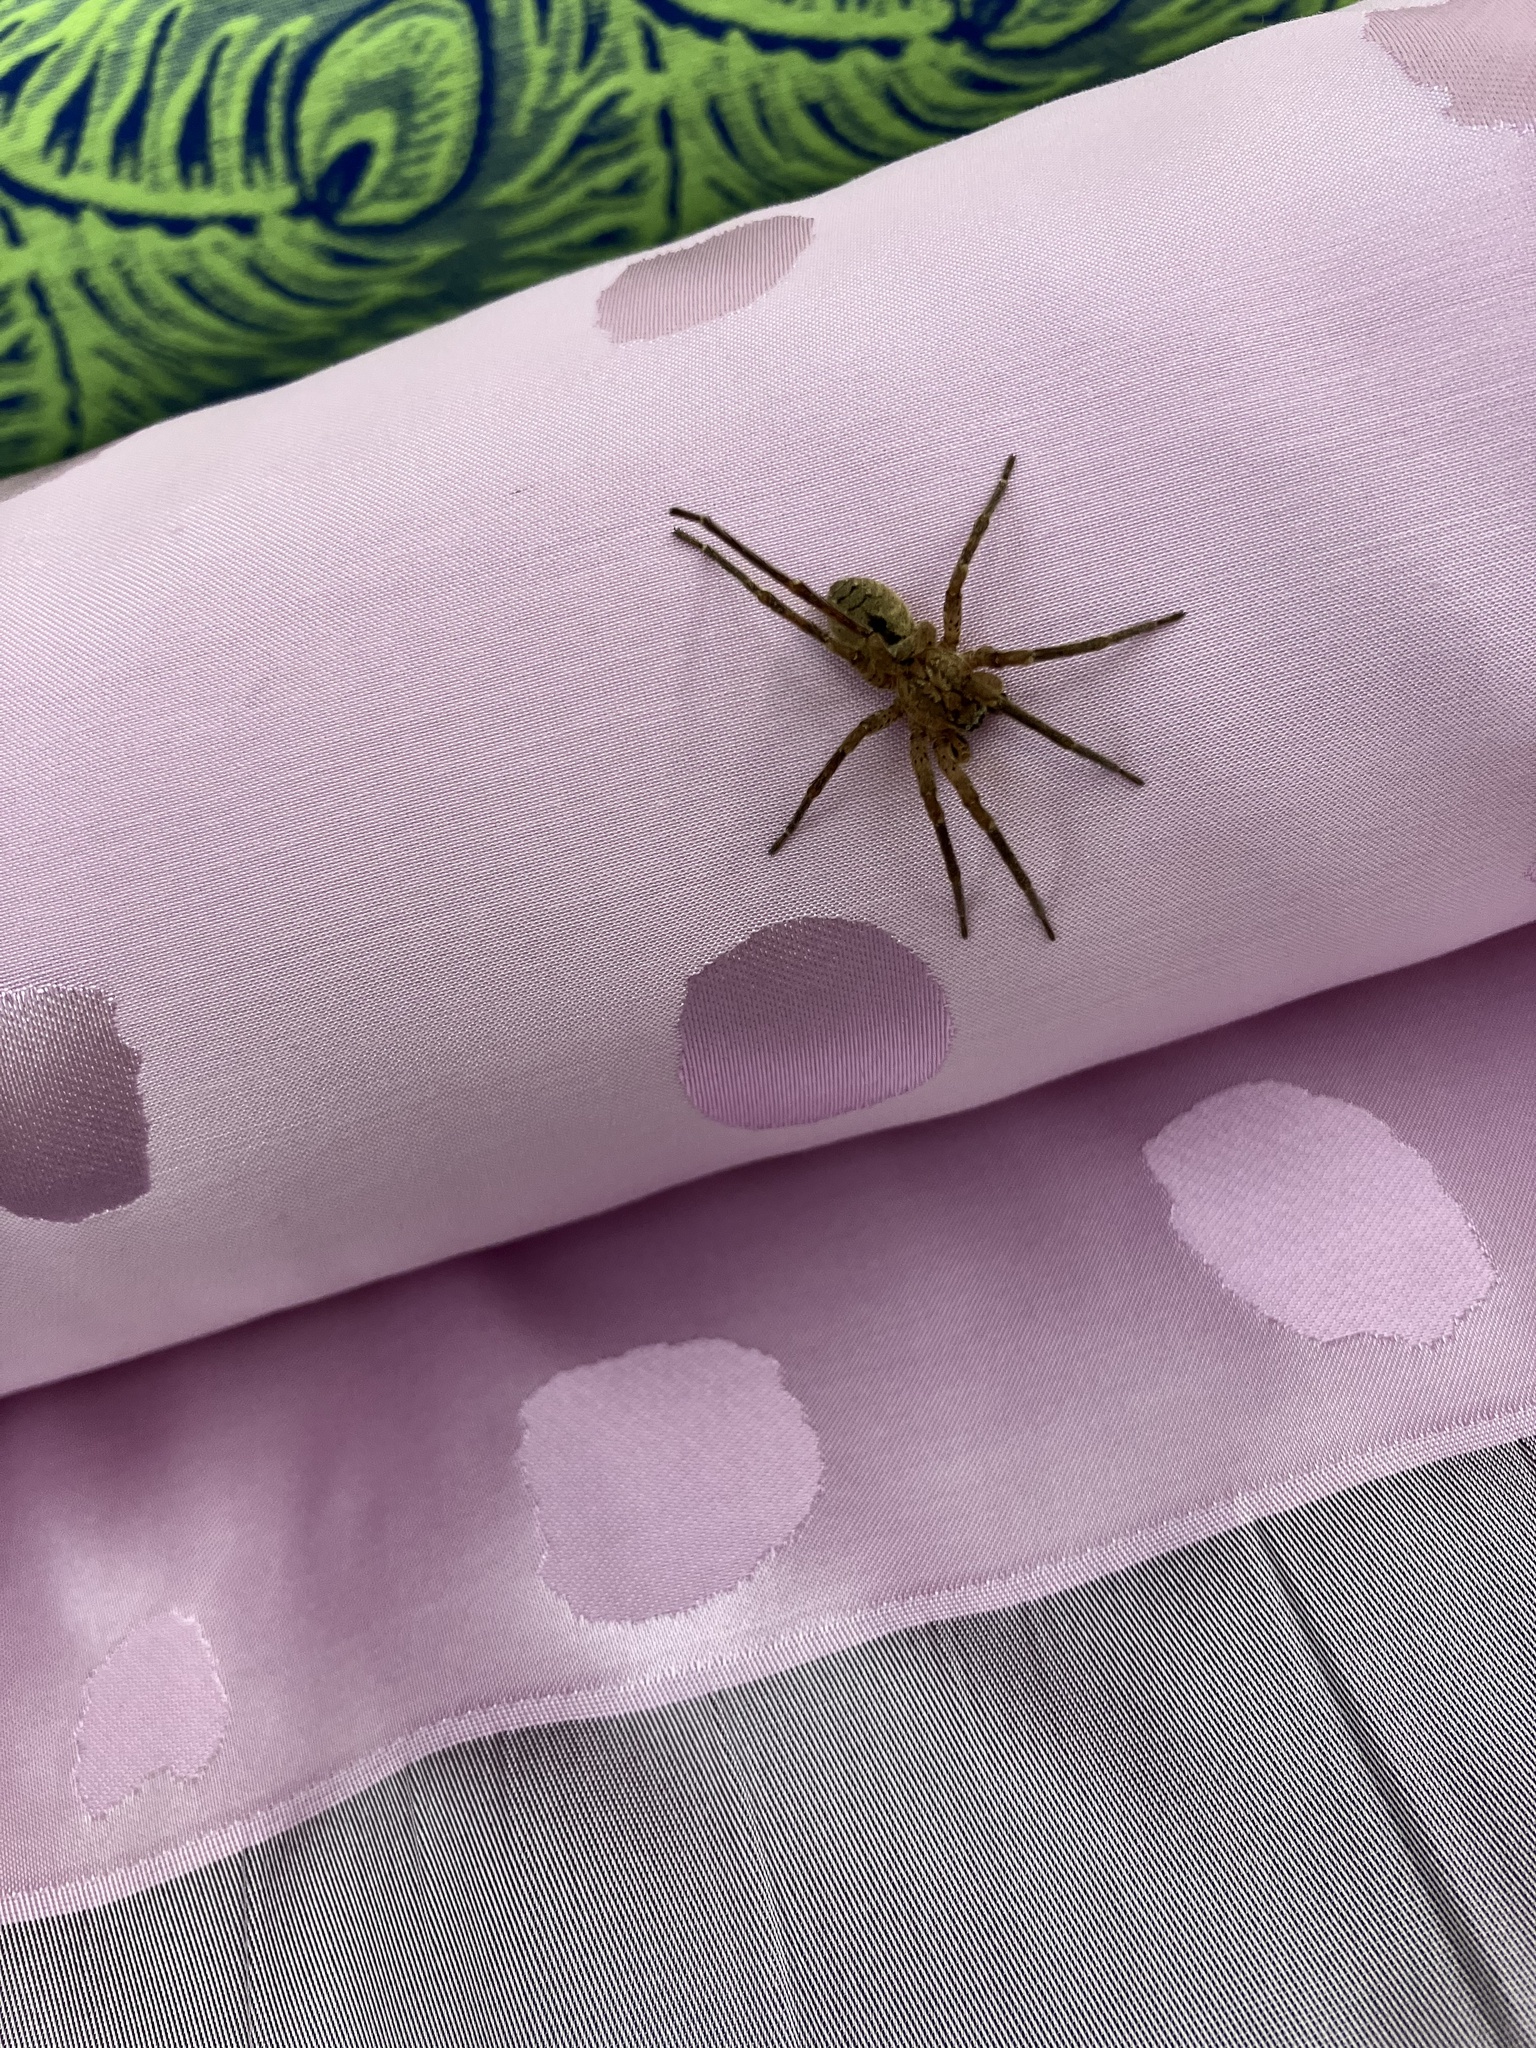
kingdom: Animalia
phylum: Arthropoda
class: Arachnida
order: Araneae
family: Zoropsidae
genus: Zoropsis
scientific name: Zoropsis spinimana
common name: Zoropsid spider
